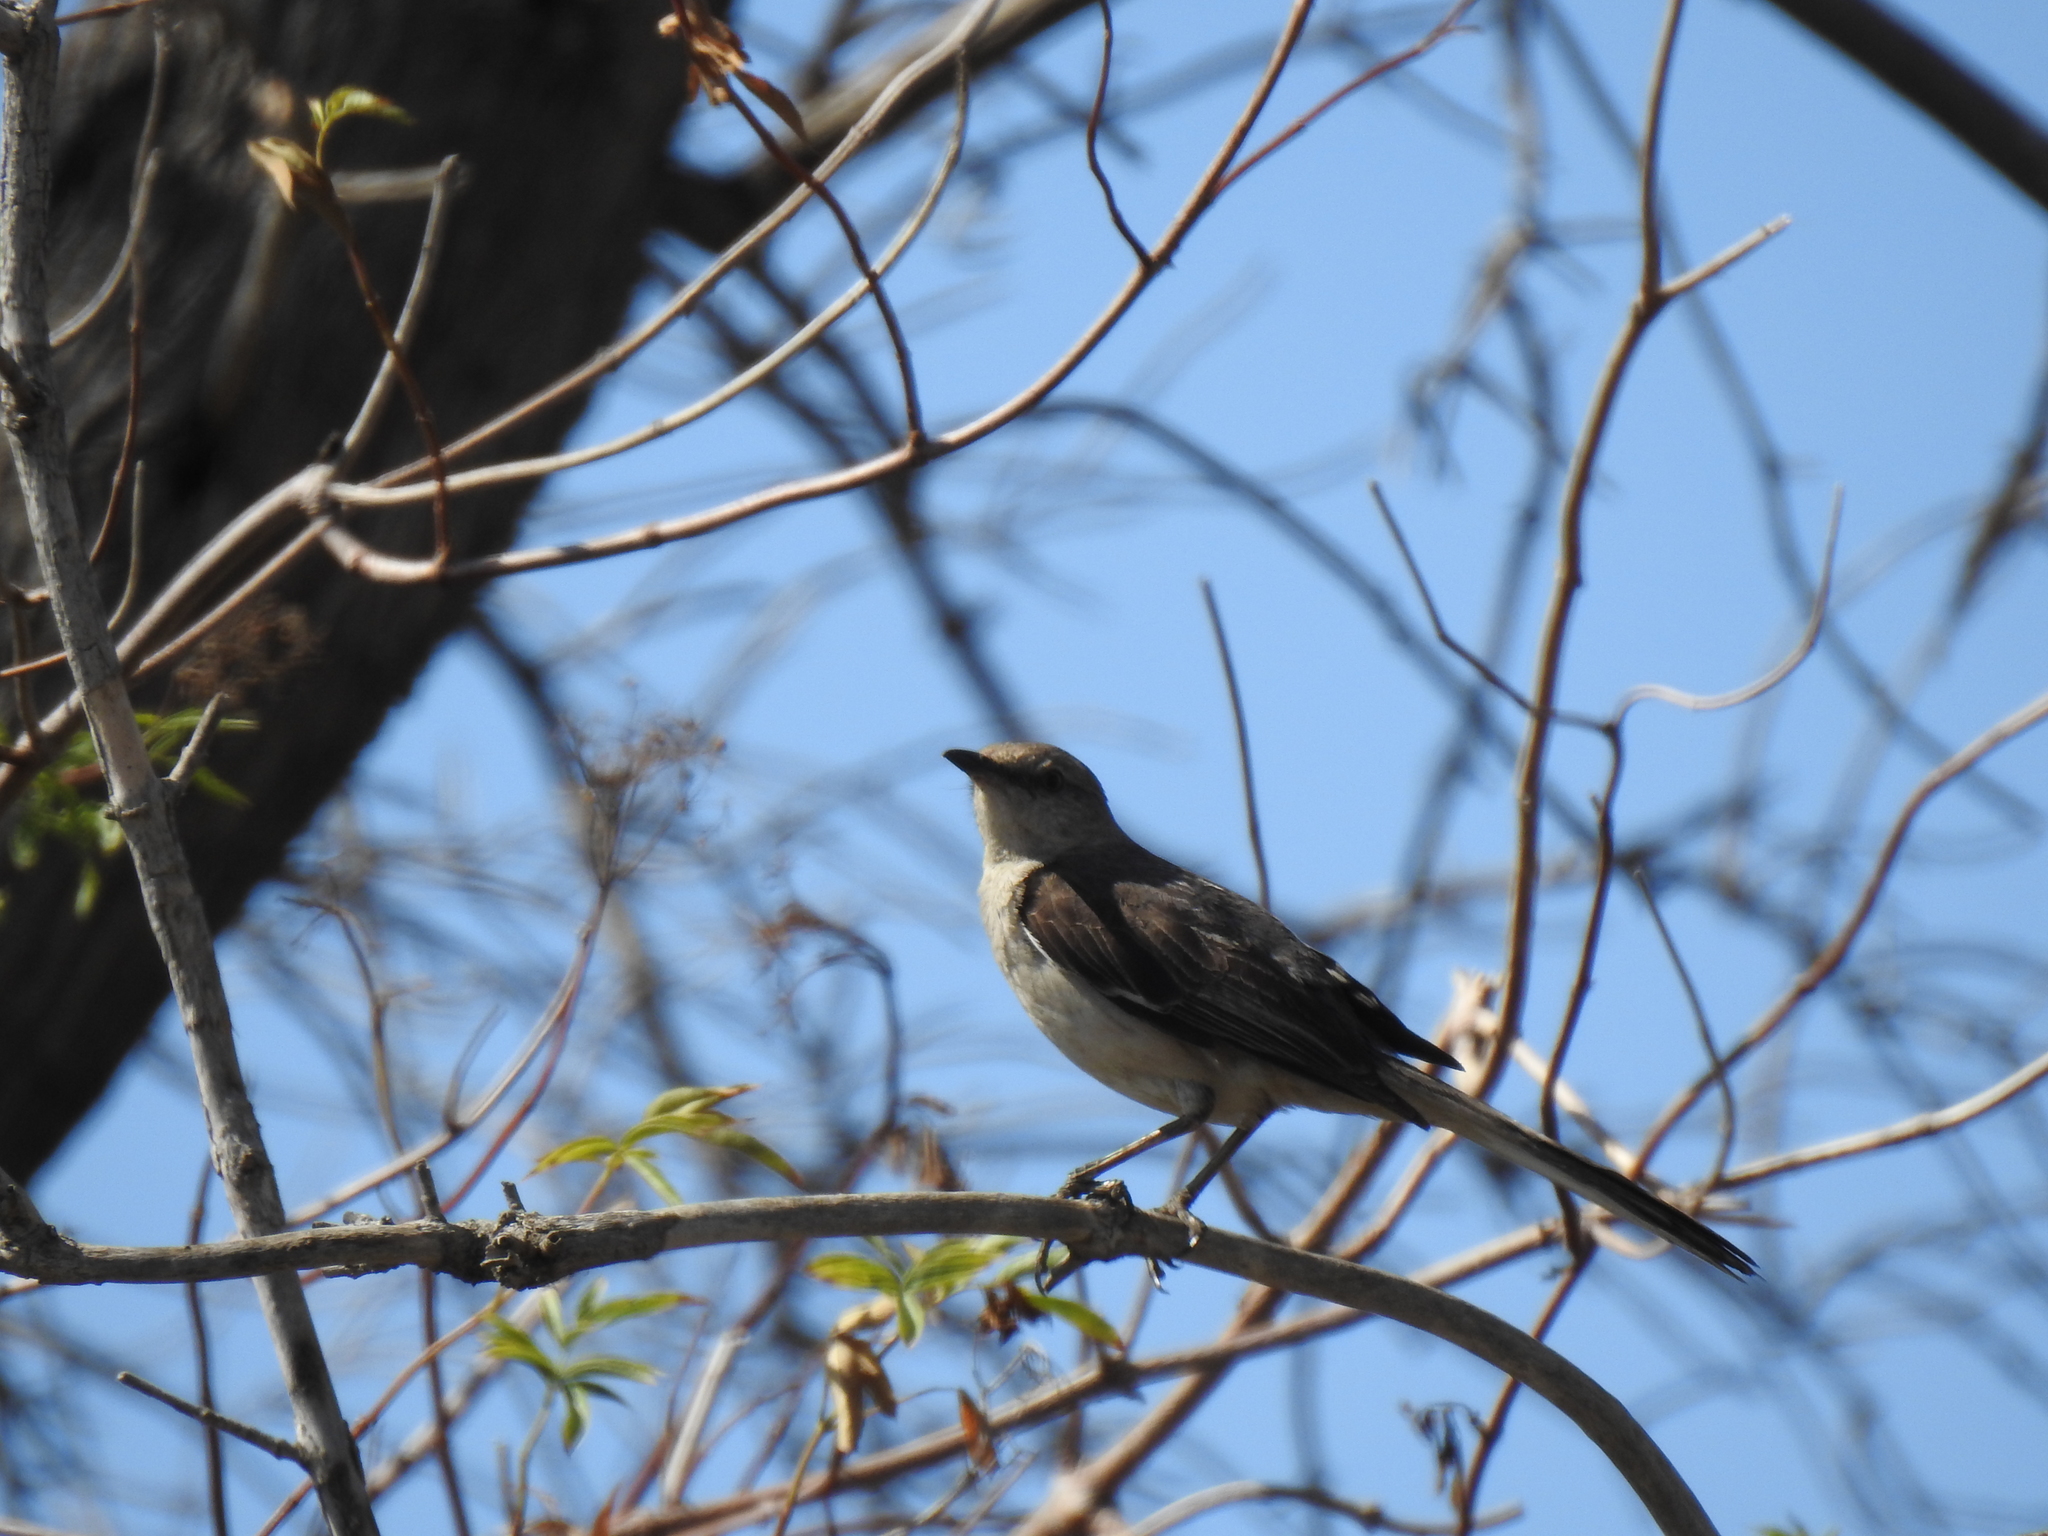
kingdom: Animalia
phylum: Chordata
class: Aves
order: Passeriformes
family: Mimidae
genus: Mimus
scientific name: Mimus polyglottos
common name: Northern mockingbird
